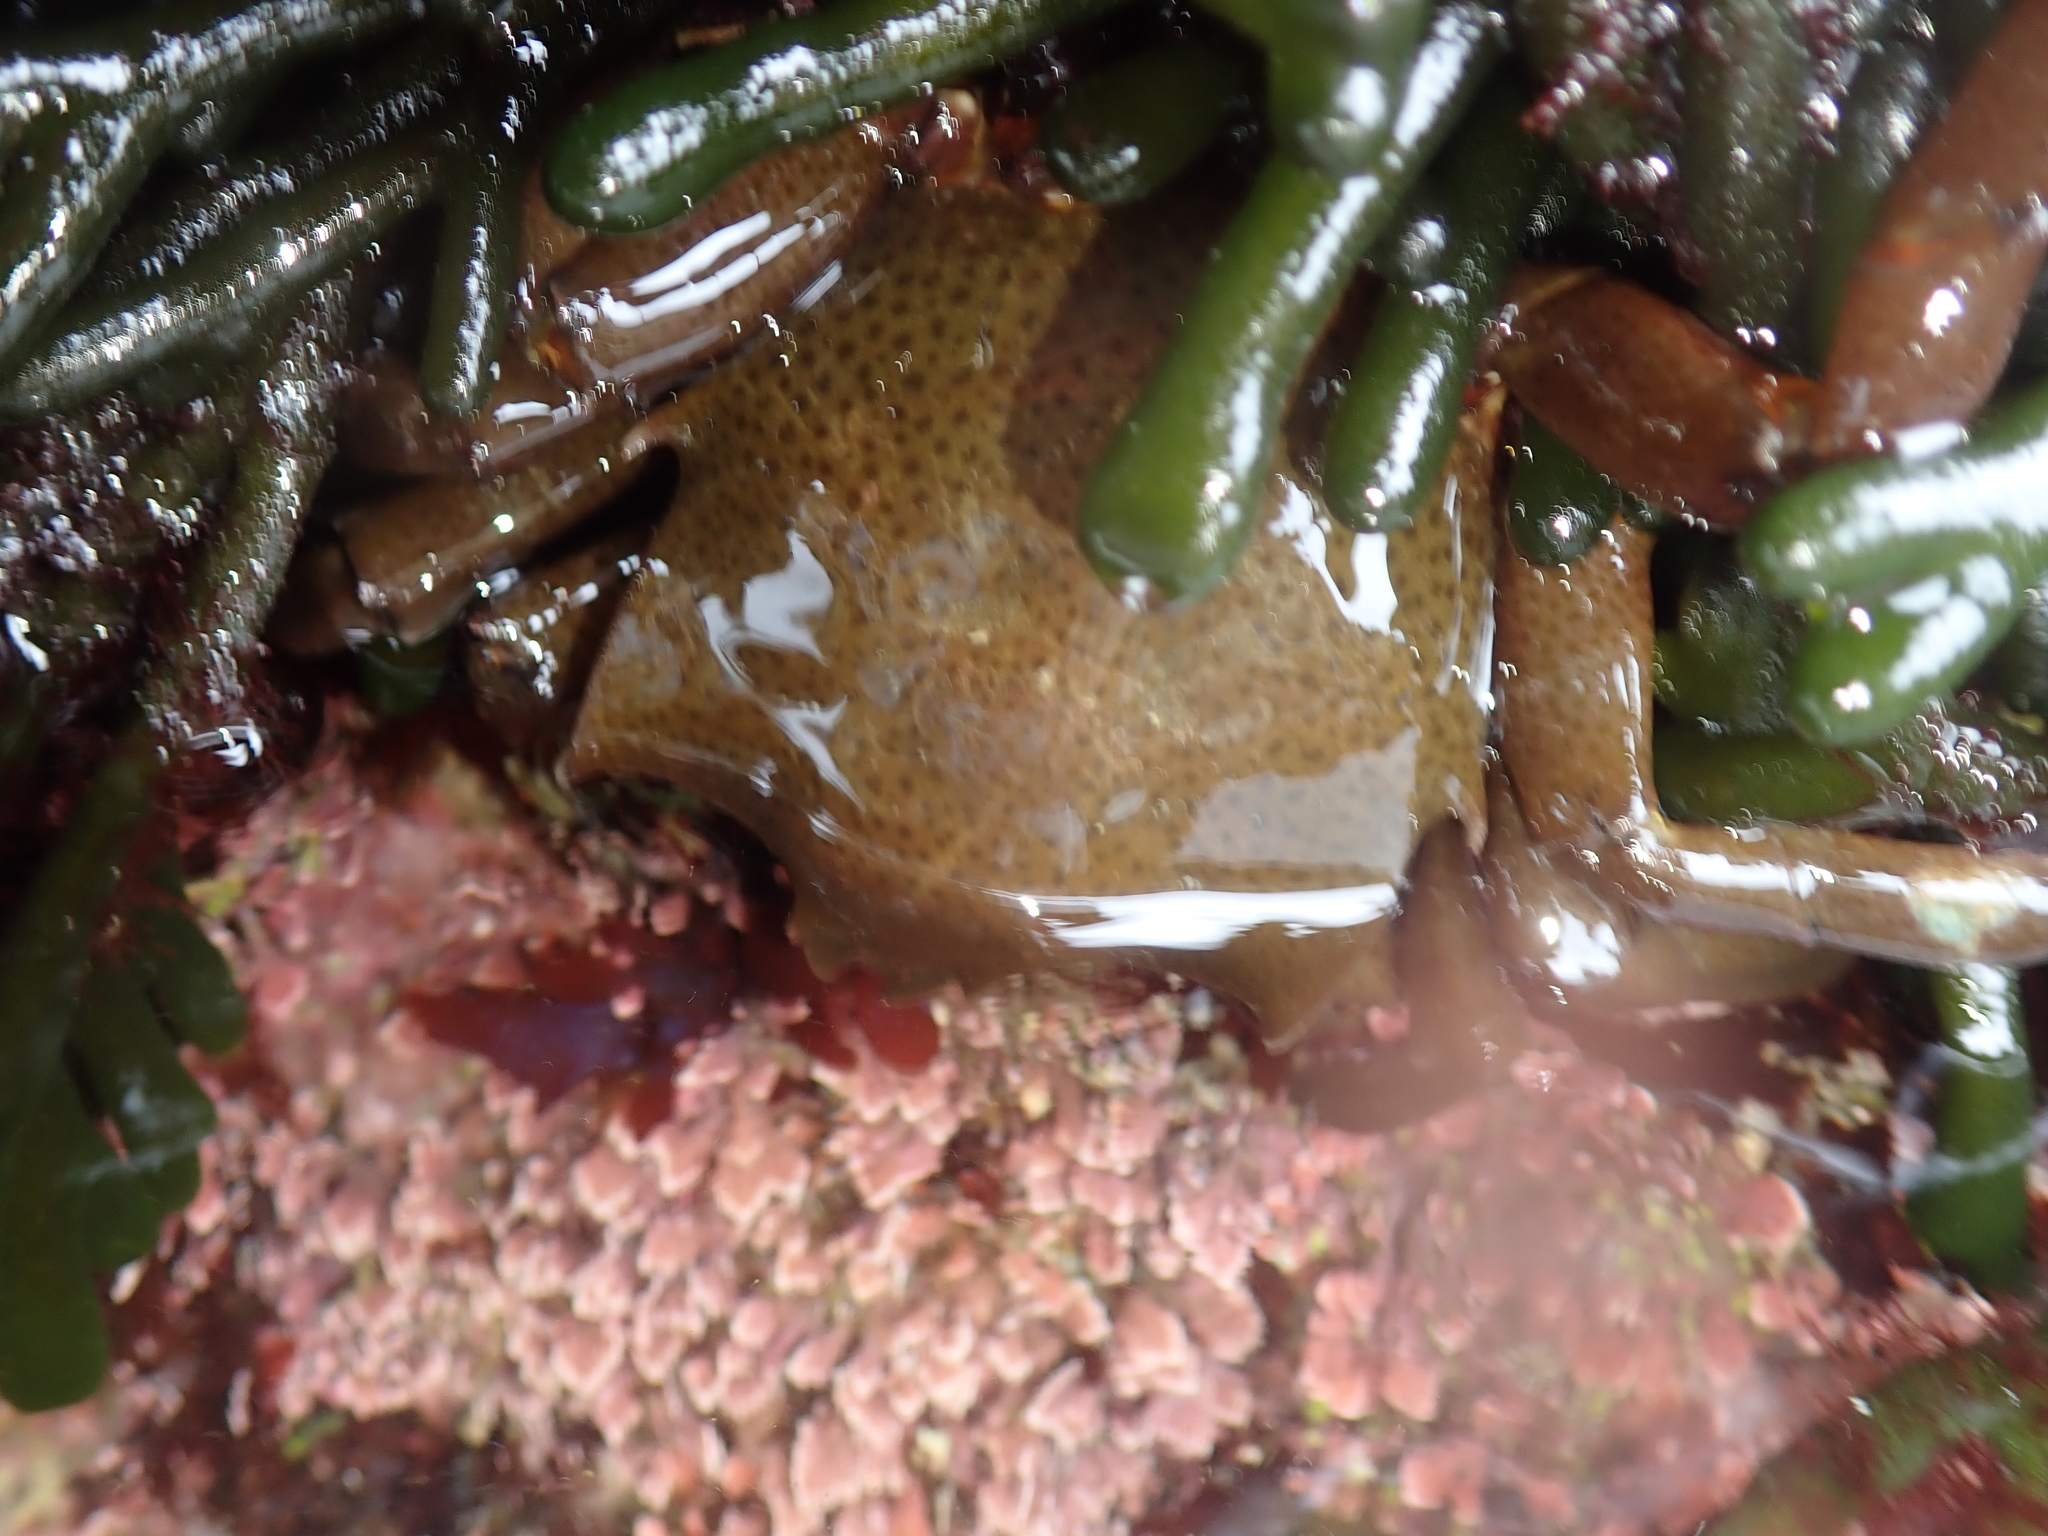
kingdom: Animalia
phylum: Arthropoda
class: Malacostraca
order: Decapoda
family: Epialtidae
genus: Pugettia
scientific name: Pugettia producta
